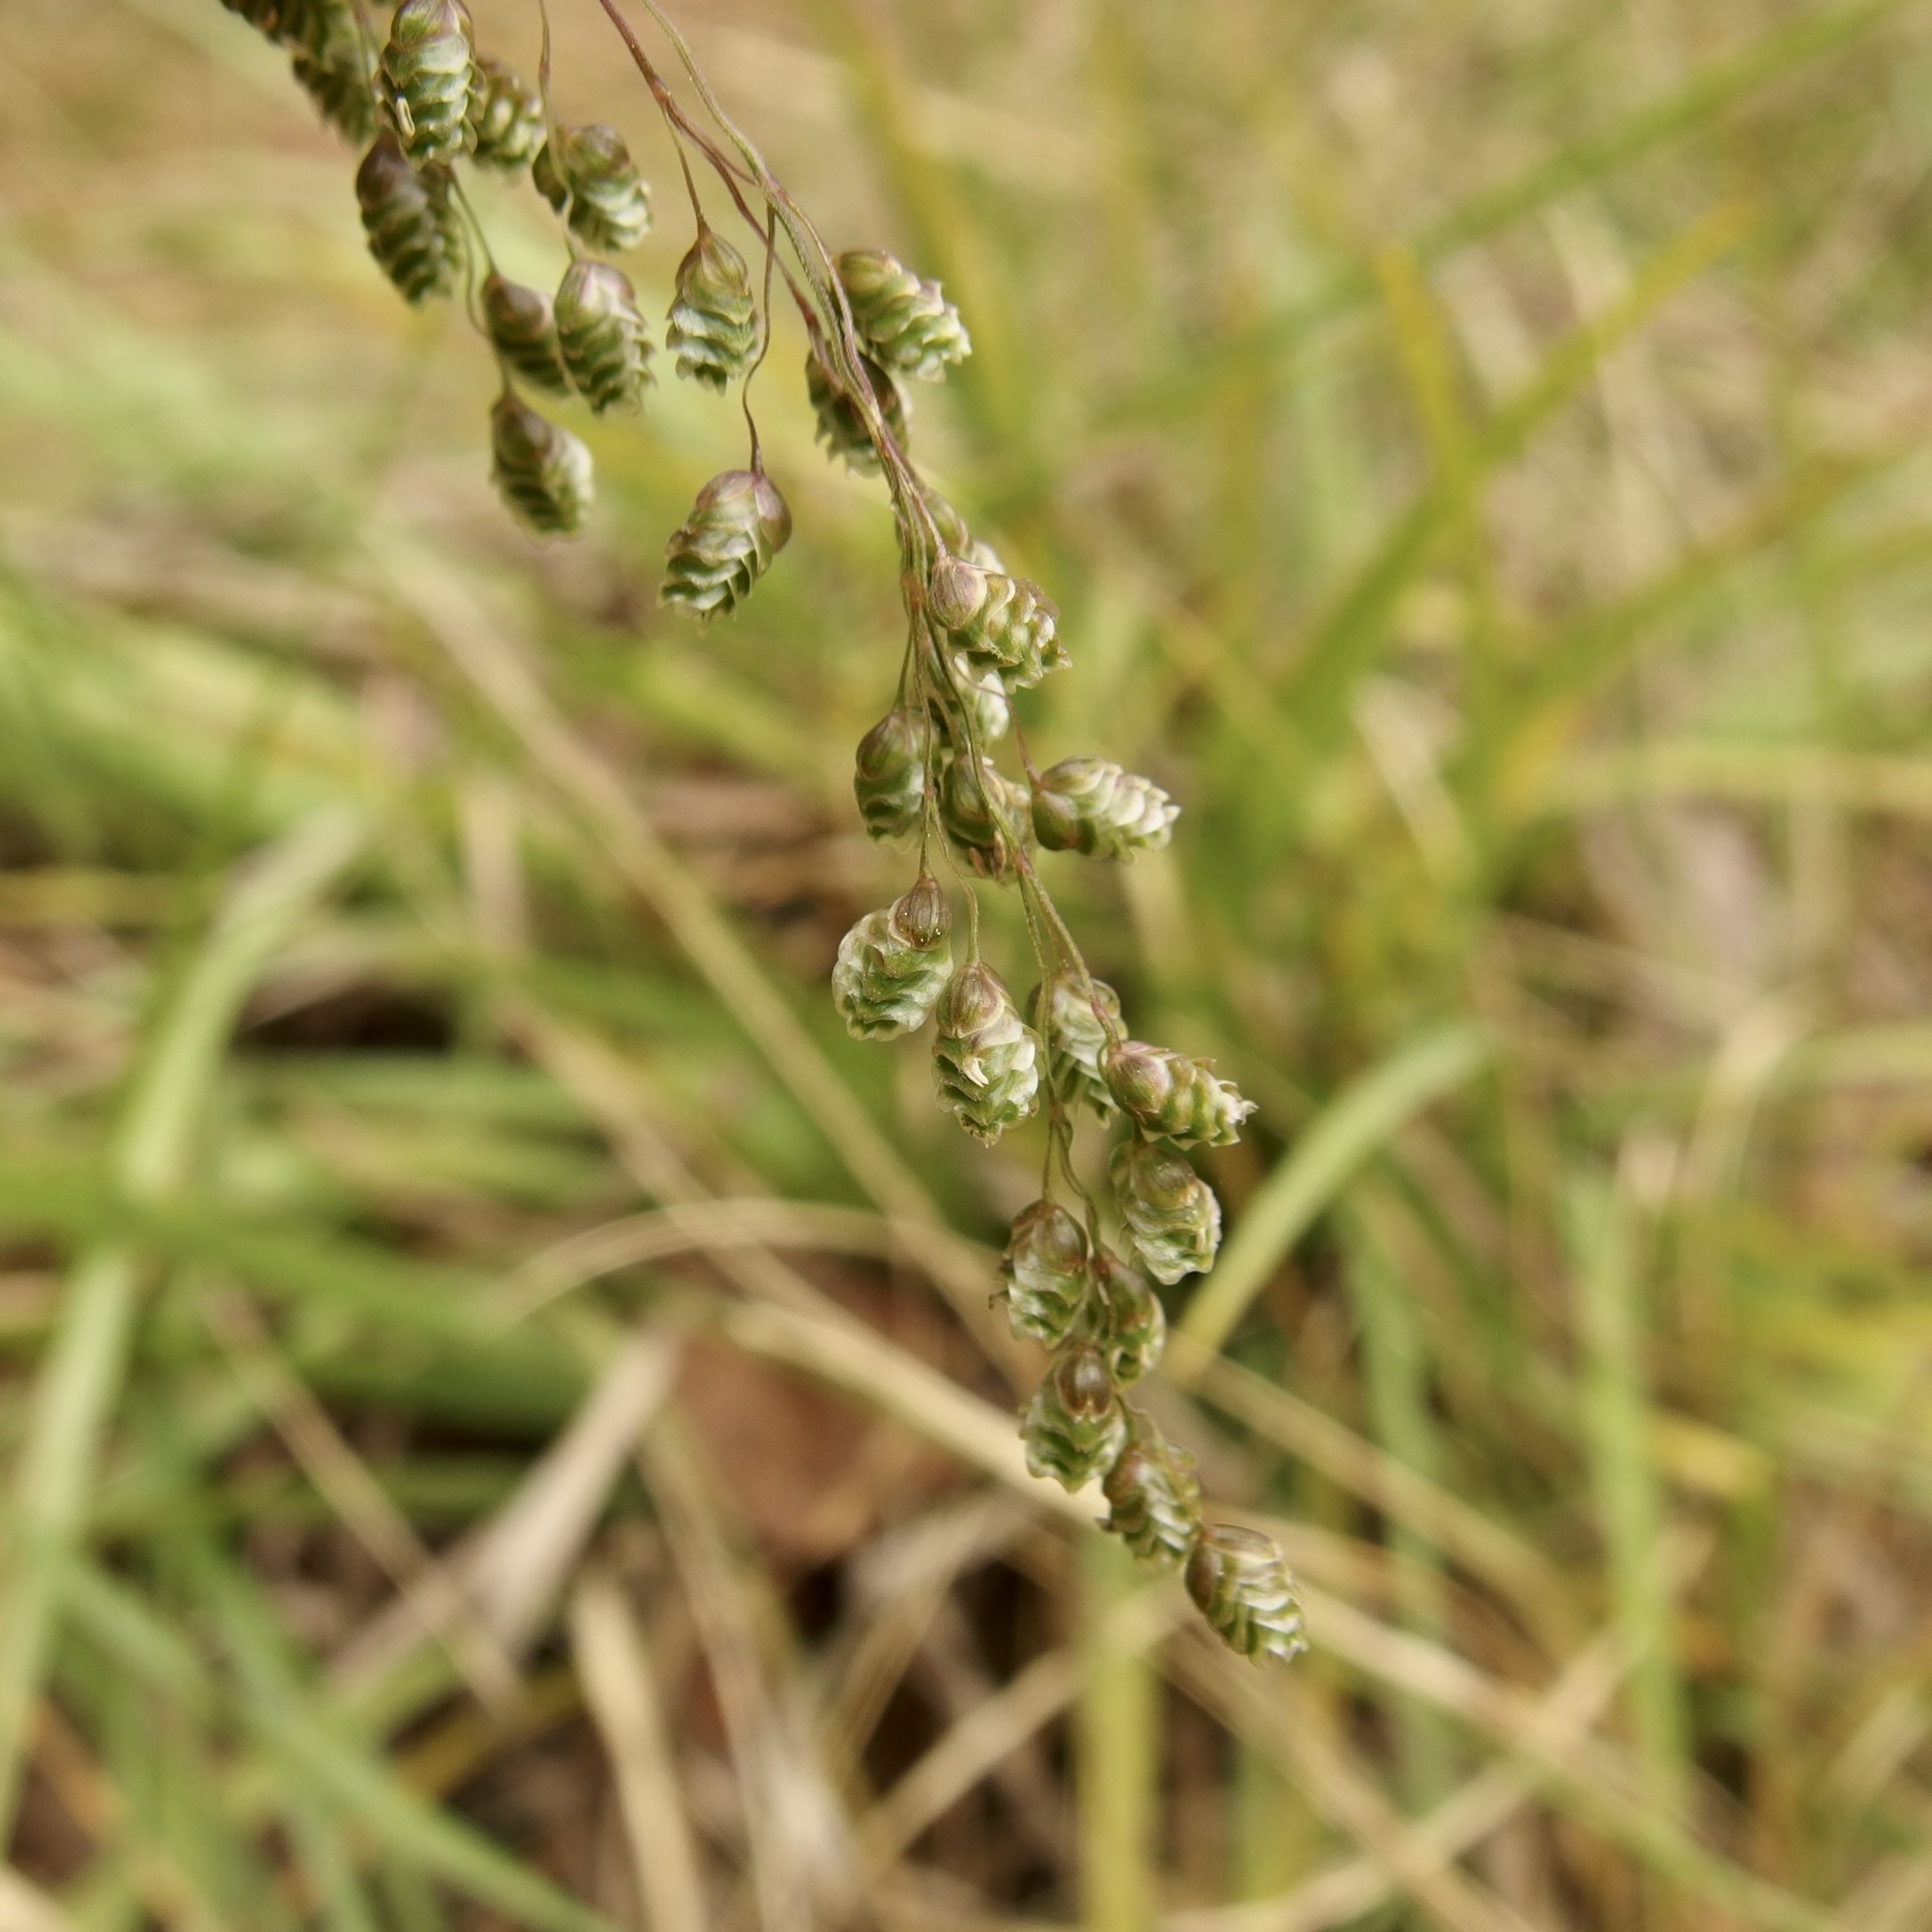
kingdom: Plantae
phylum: Tracheophyta
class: Liliopsida
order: Poales
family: Poaceae
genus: Chascolytrum
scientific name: Chascolytrum subaristatum
